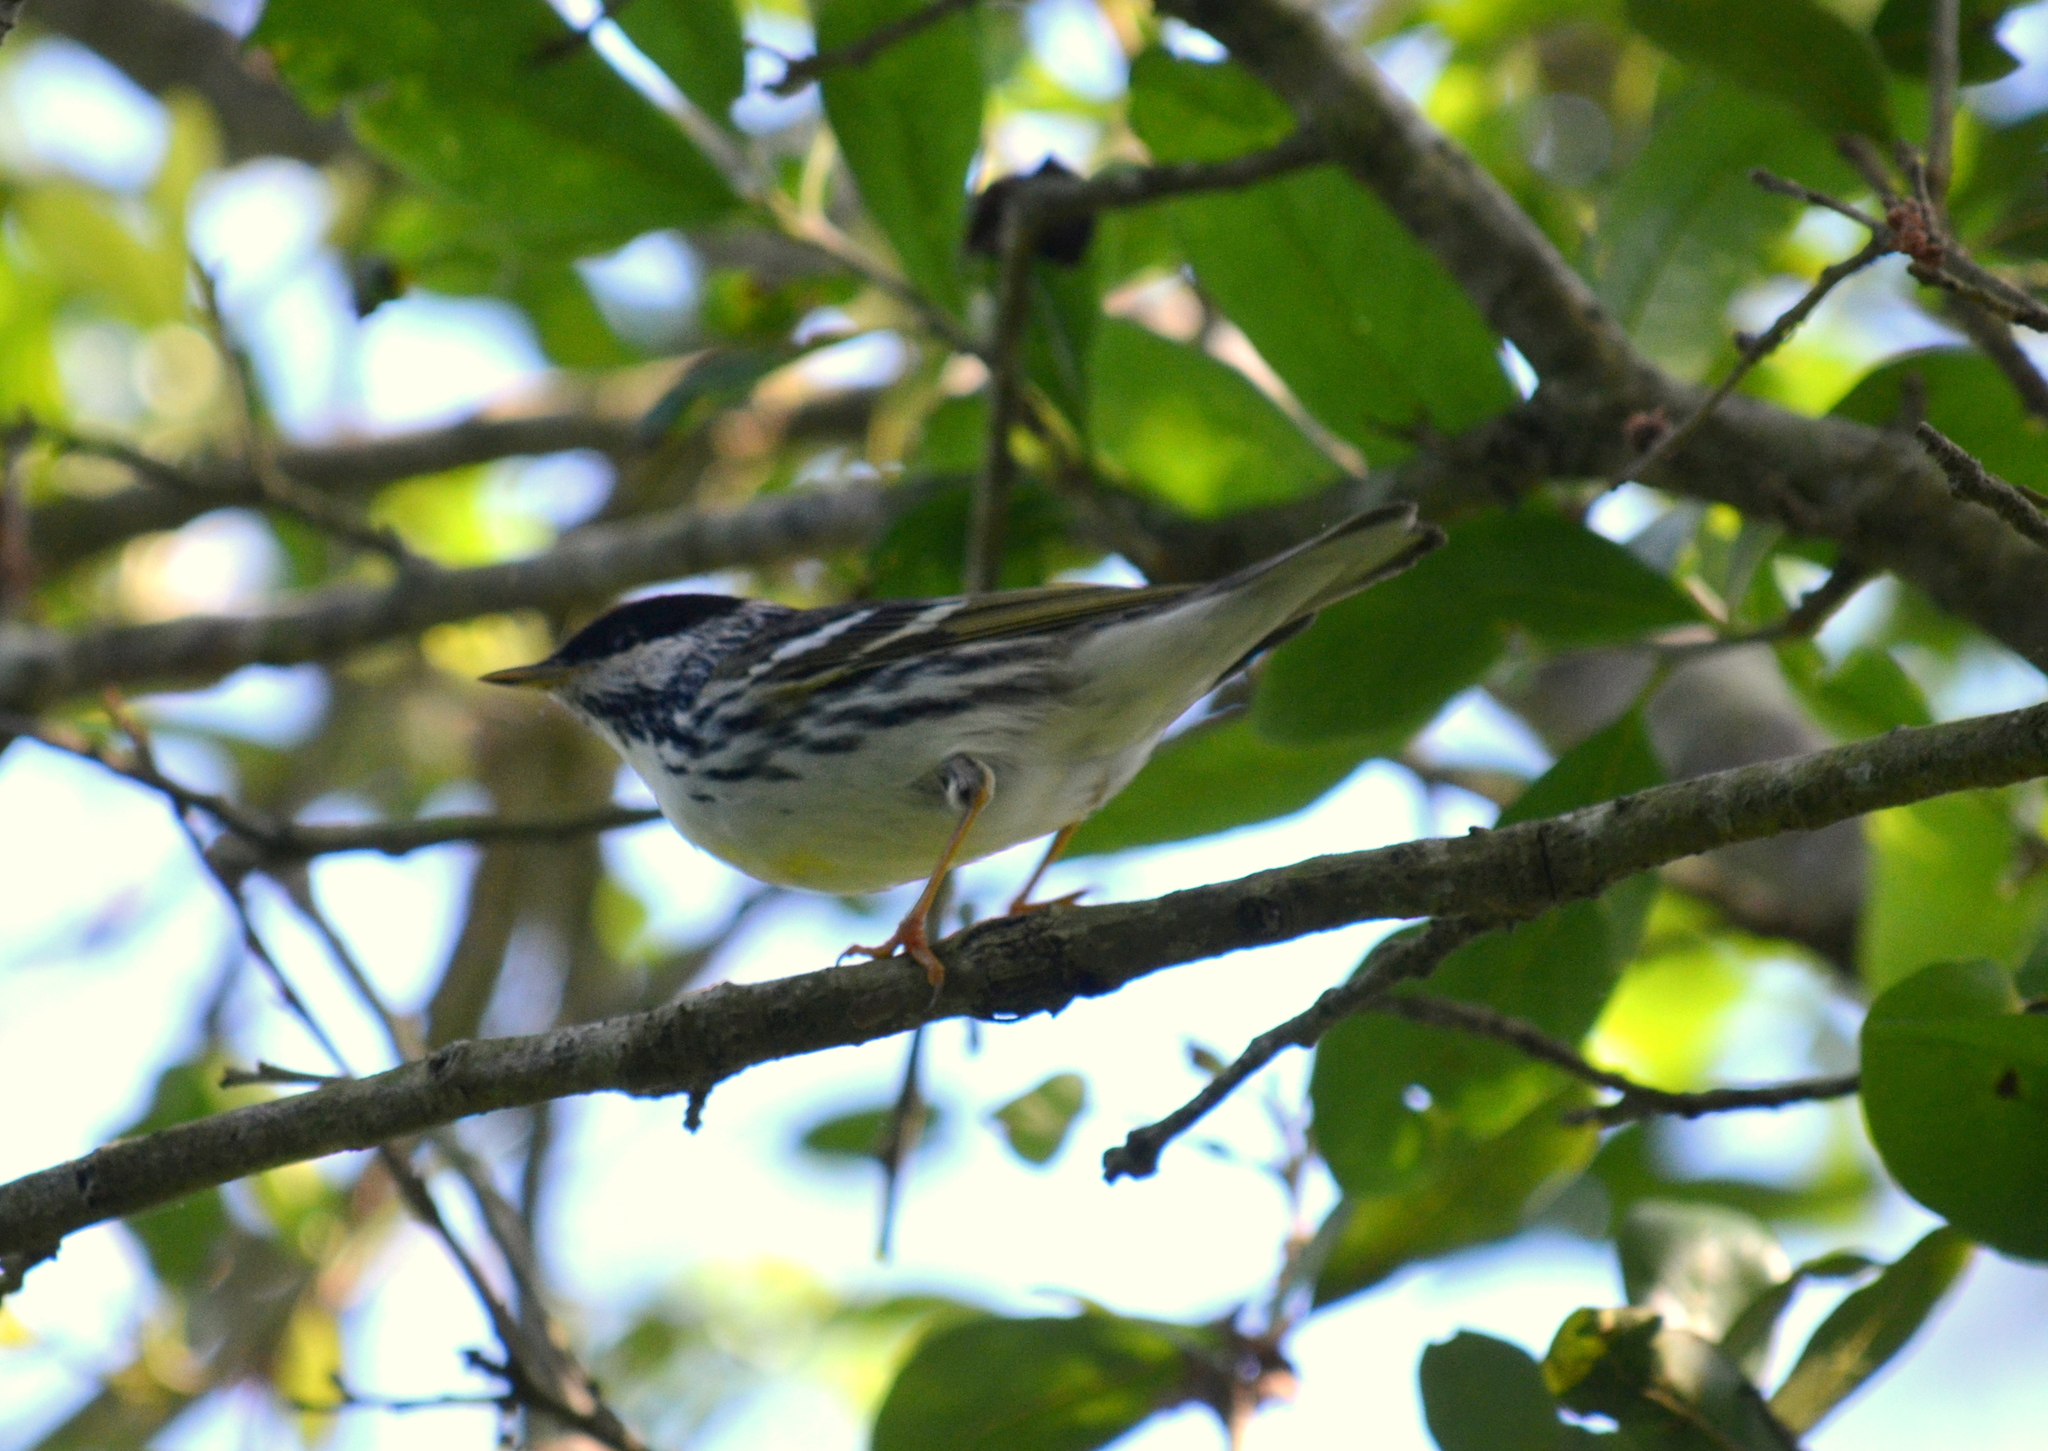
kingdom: Animalia
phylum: Chordata
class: Aves
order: Passeriformes
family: Parulidae
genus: Setophaga
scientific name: Setophaga striata
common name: Blackpoll warbler
